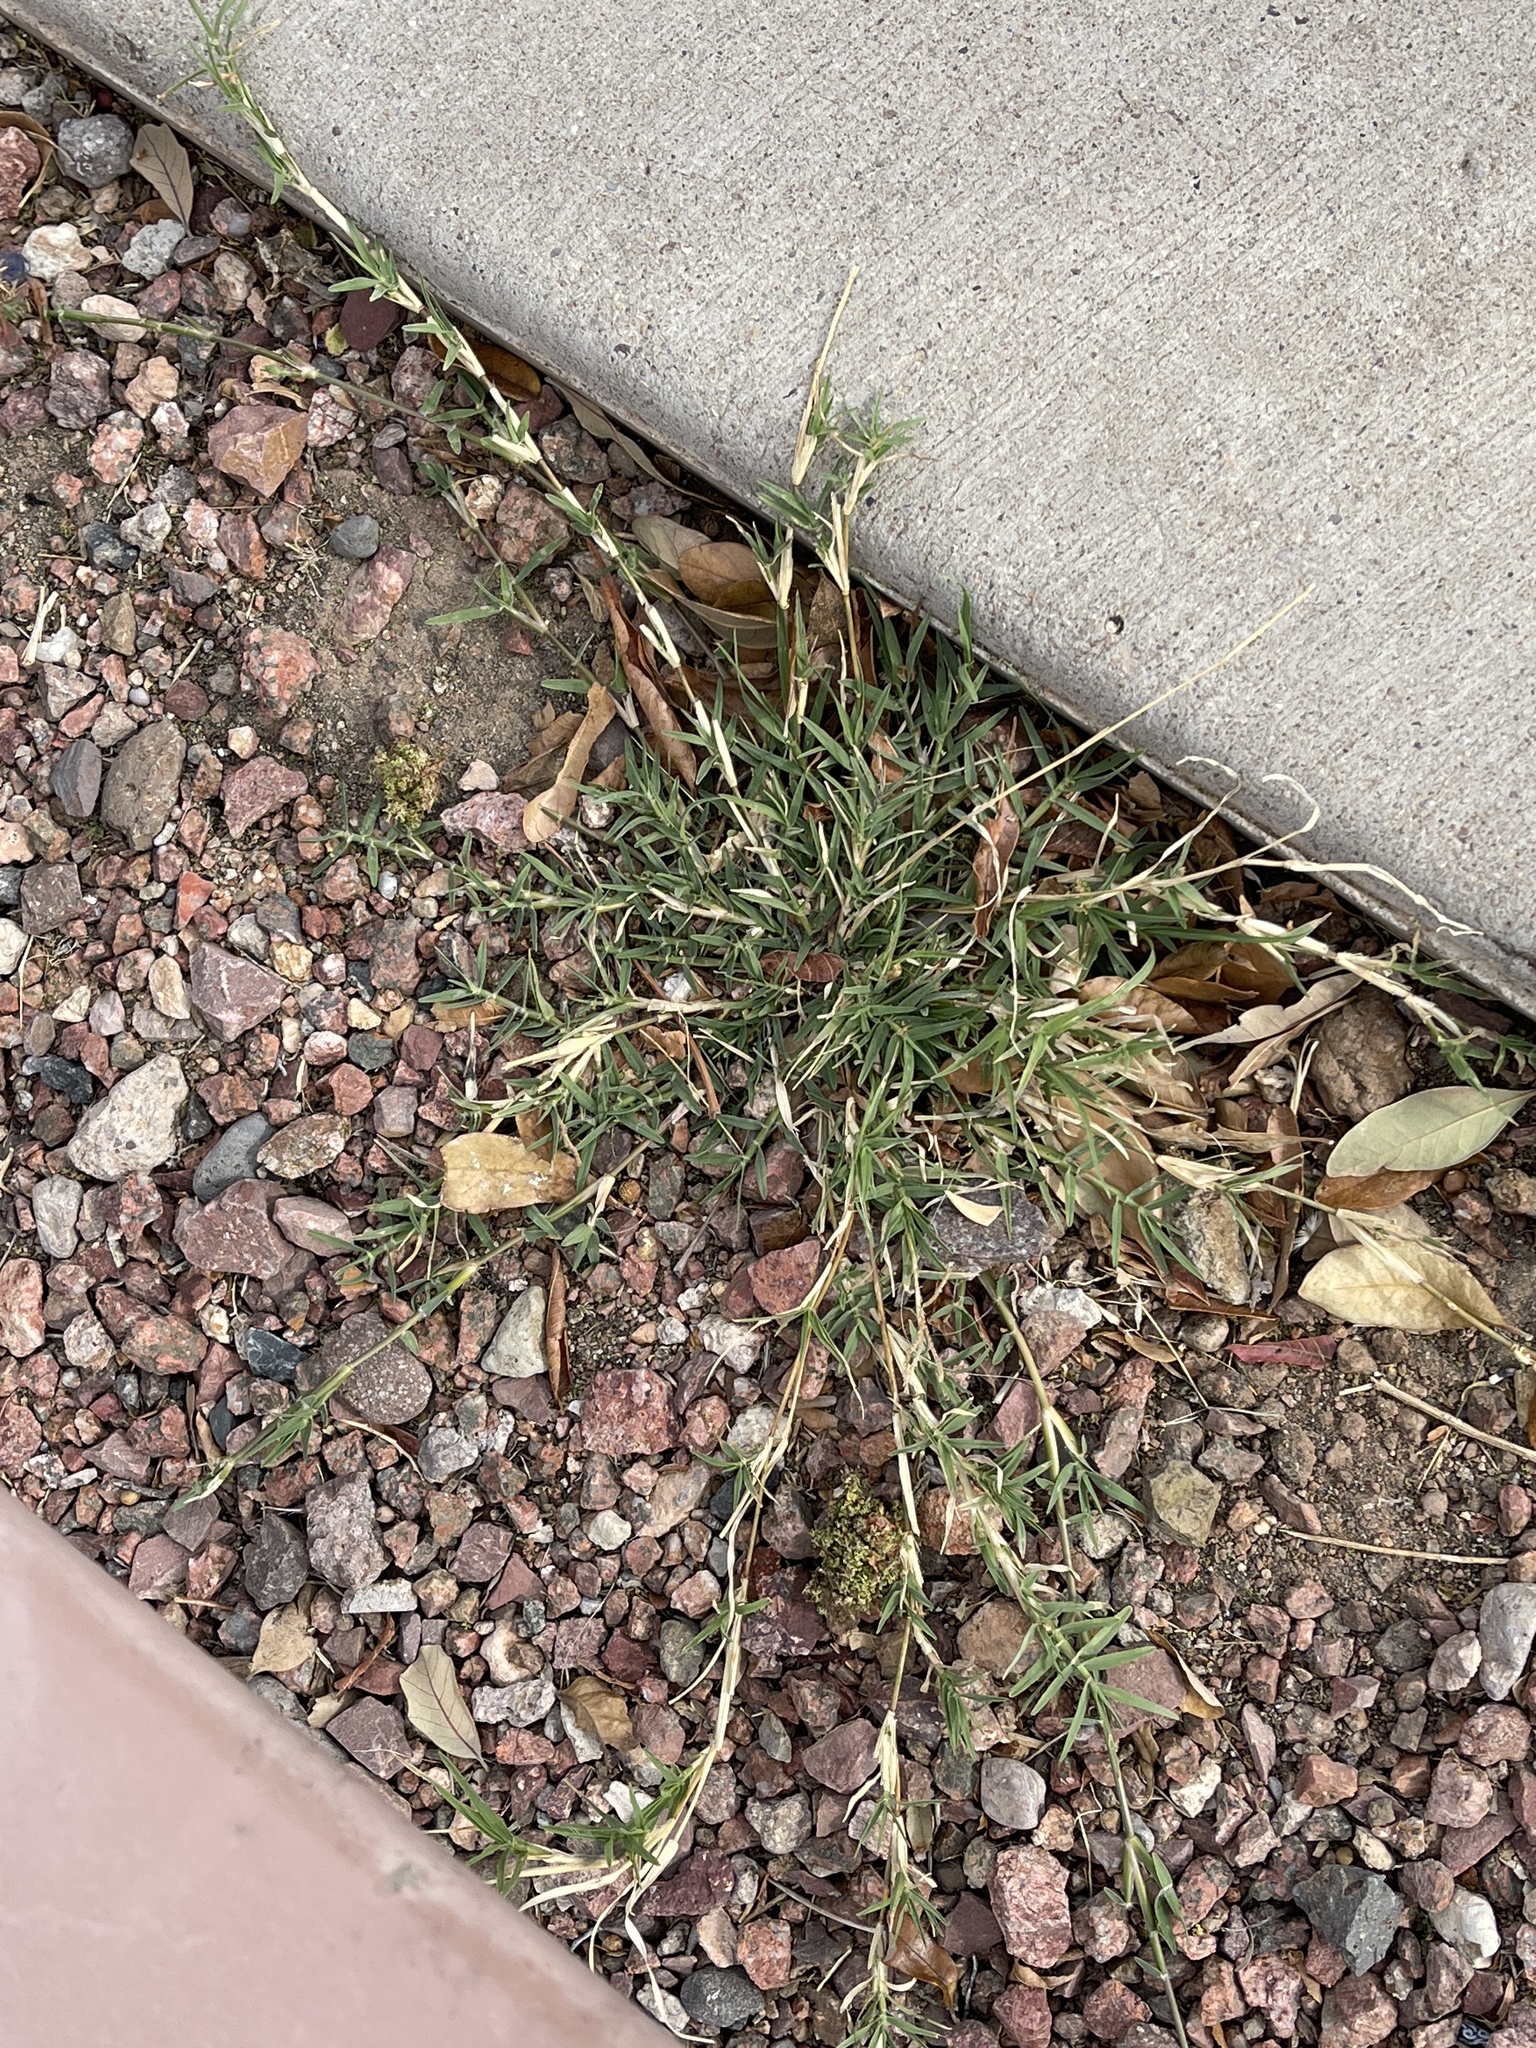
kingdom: Plantae
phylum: Tracheophyta
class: Liliopsida
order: Poales
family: Poaceae
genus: Cynodon
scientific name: Cynodon dactylon
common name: Bermuda grass
